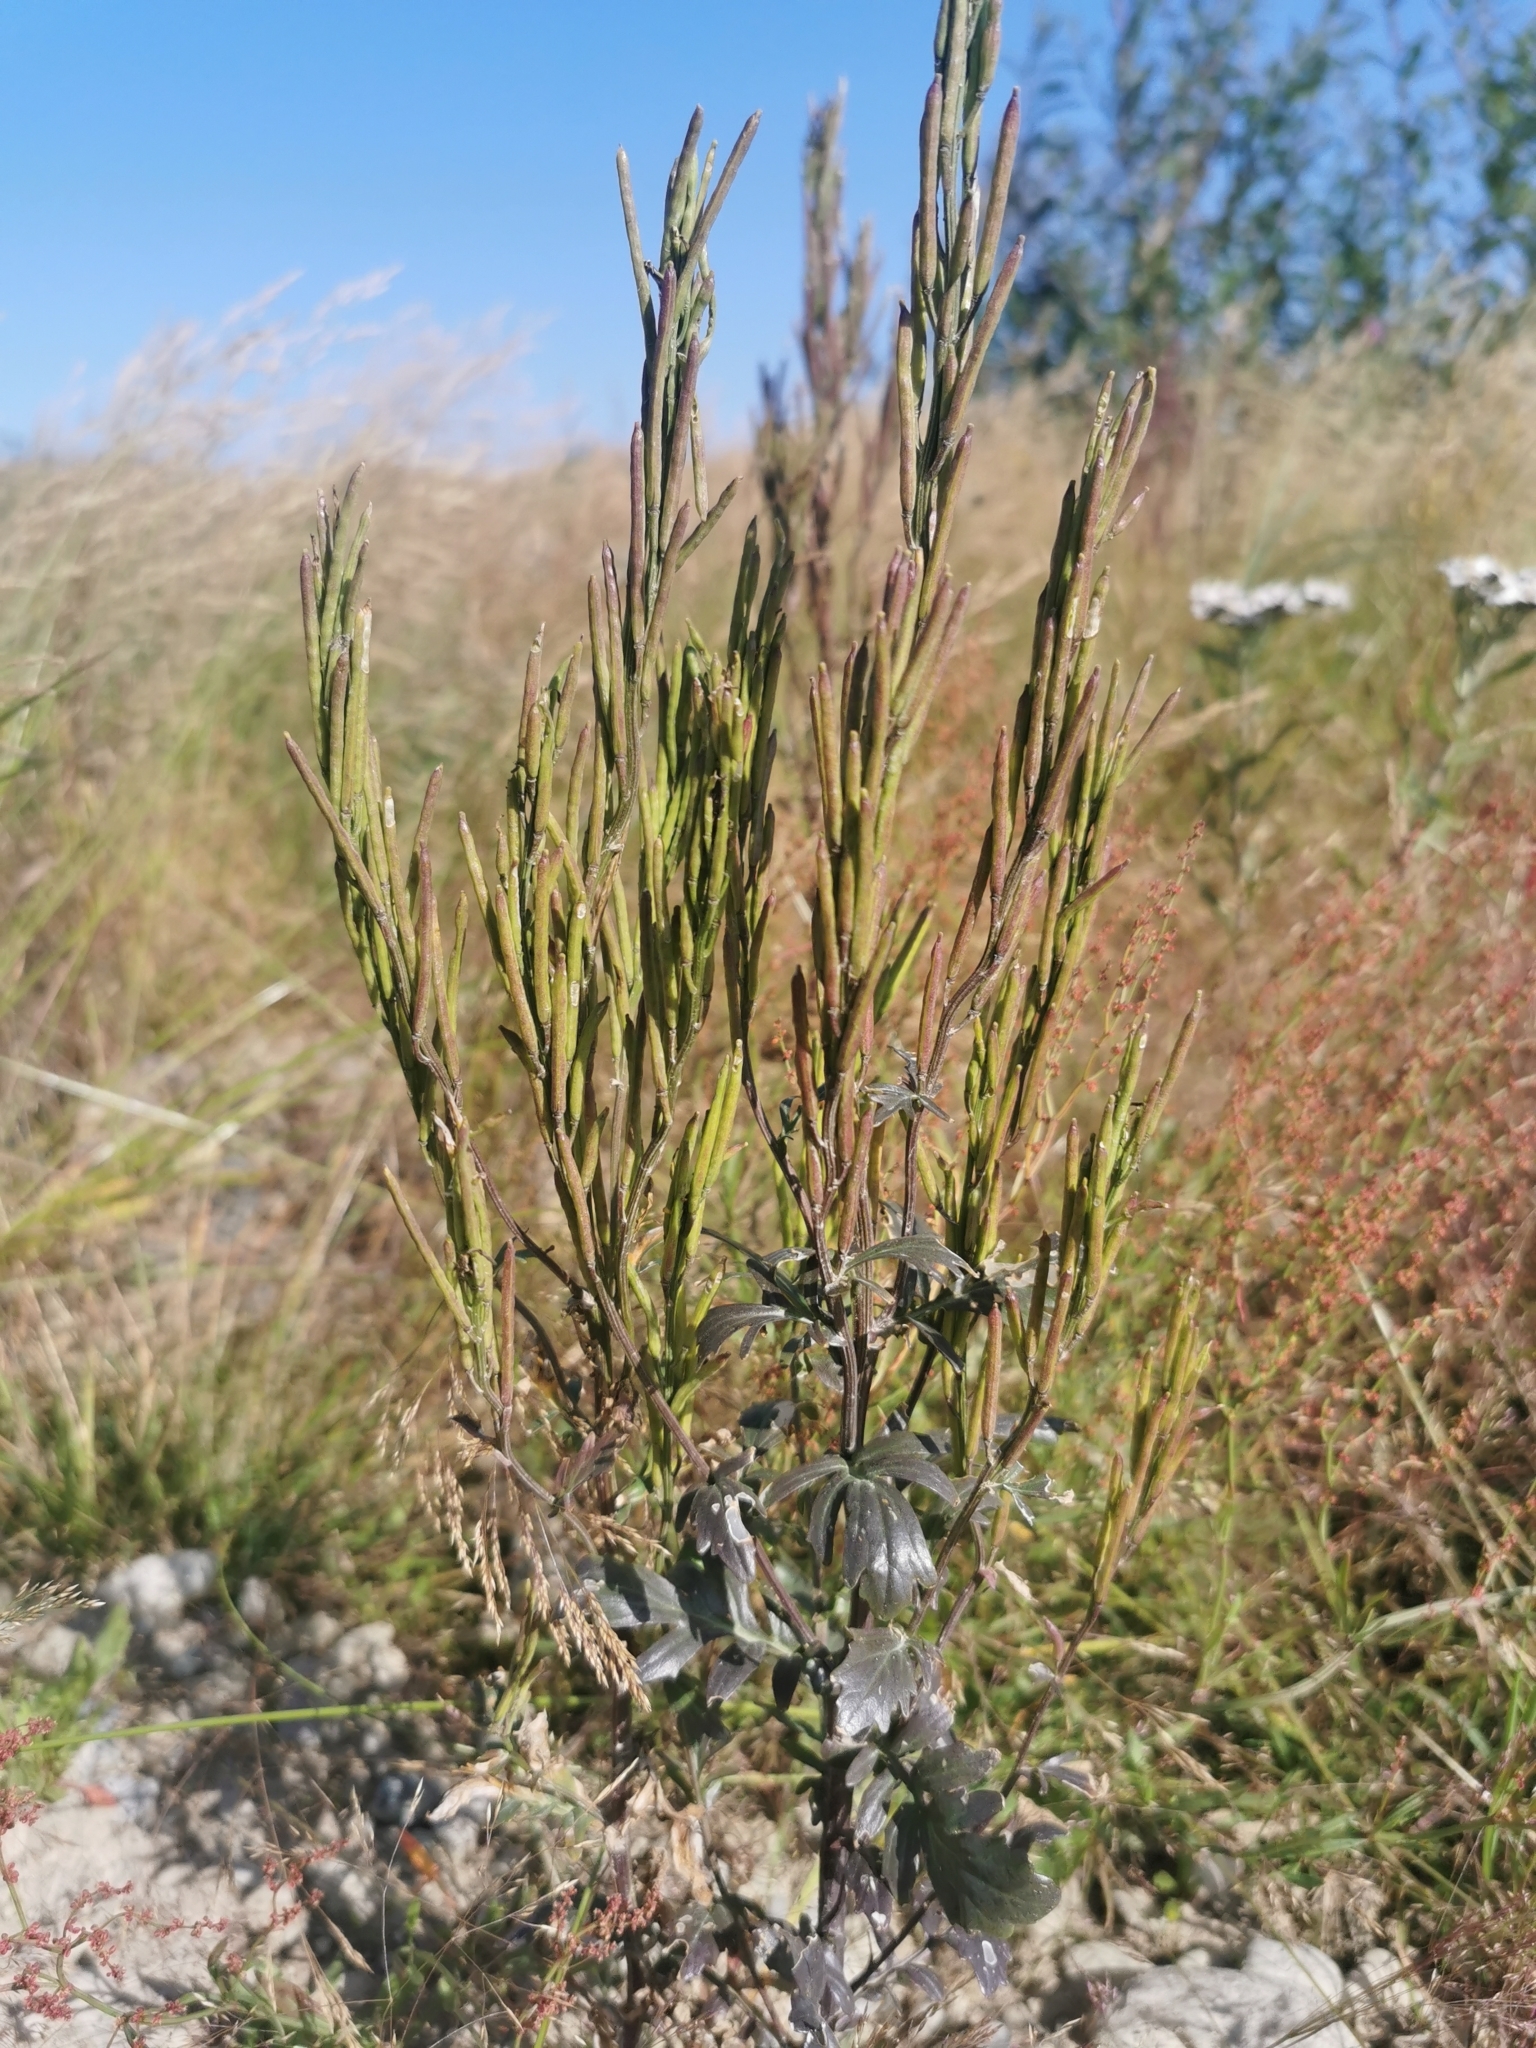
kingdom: Plantae
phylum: Tracheophyta
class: Magnoliopsida
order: Brassicales
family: Brassicaceae
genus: Barbarea
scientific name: Barbarea orthoceras
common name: American wintercress
